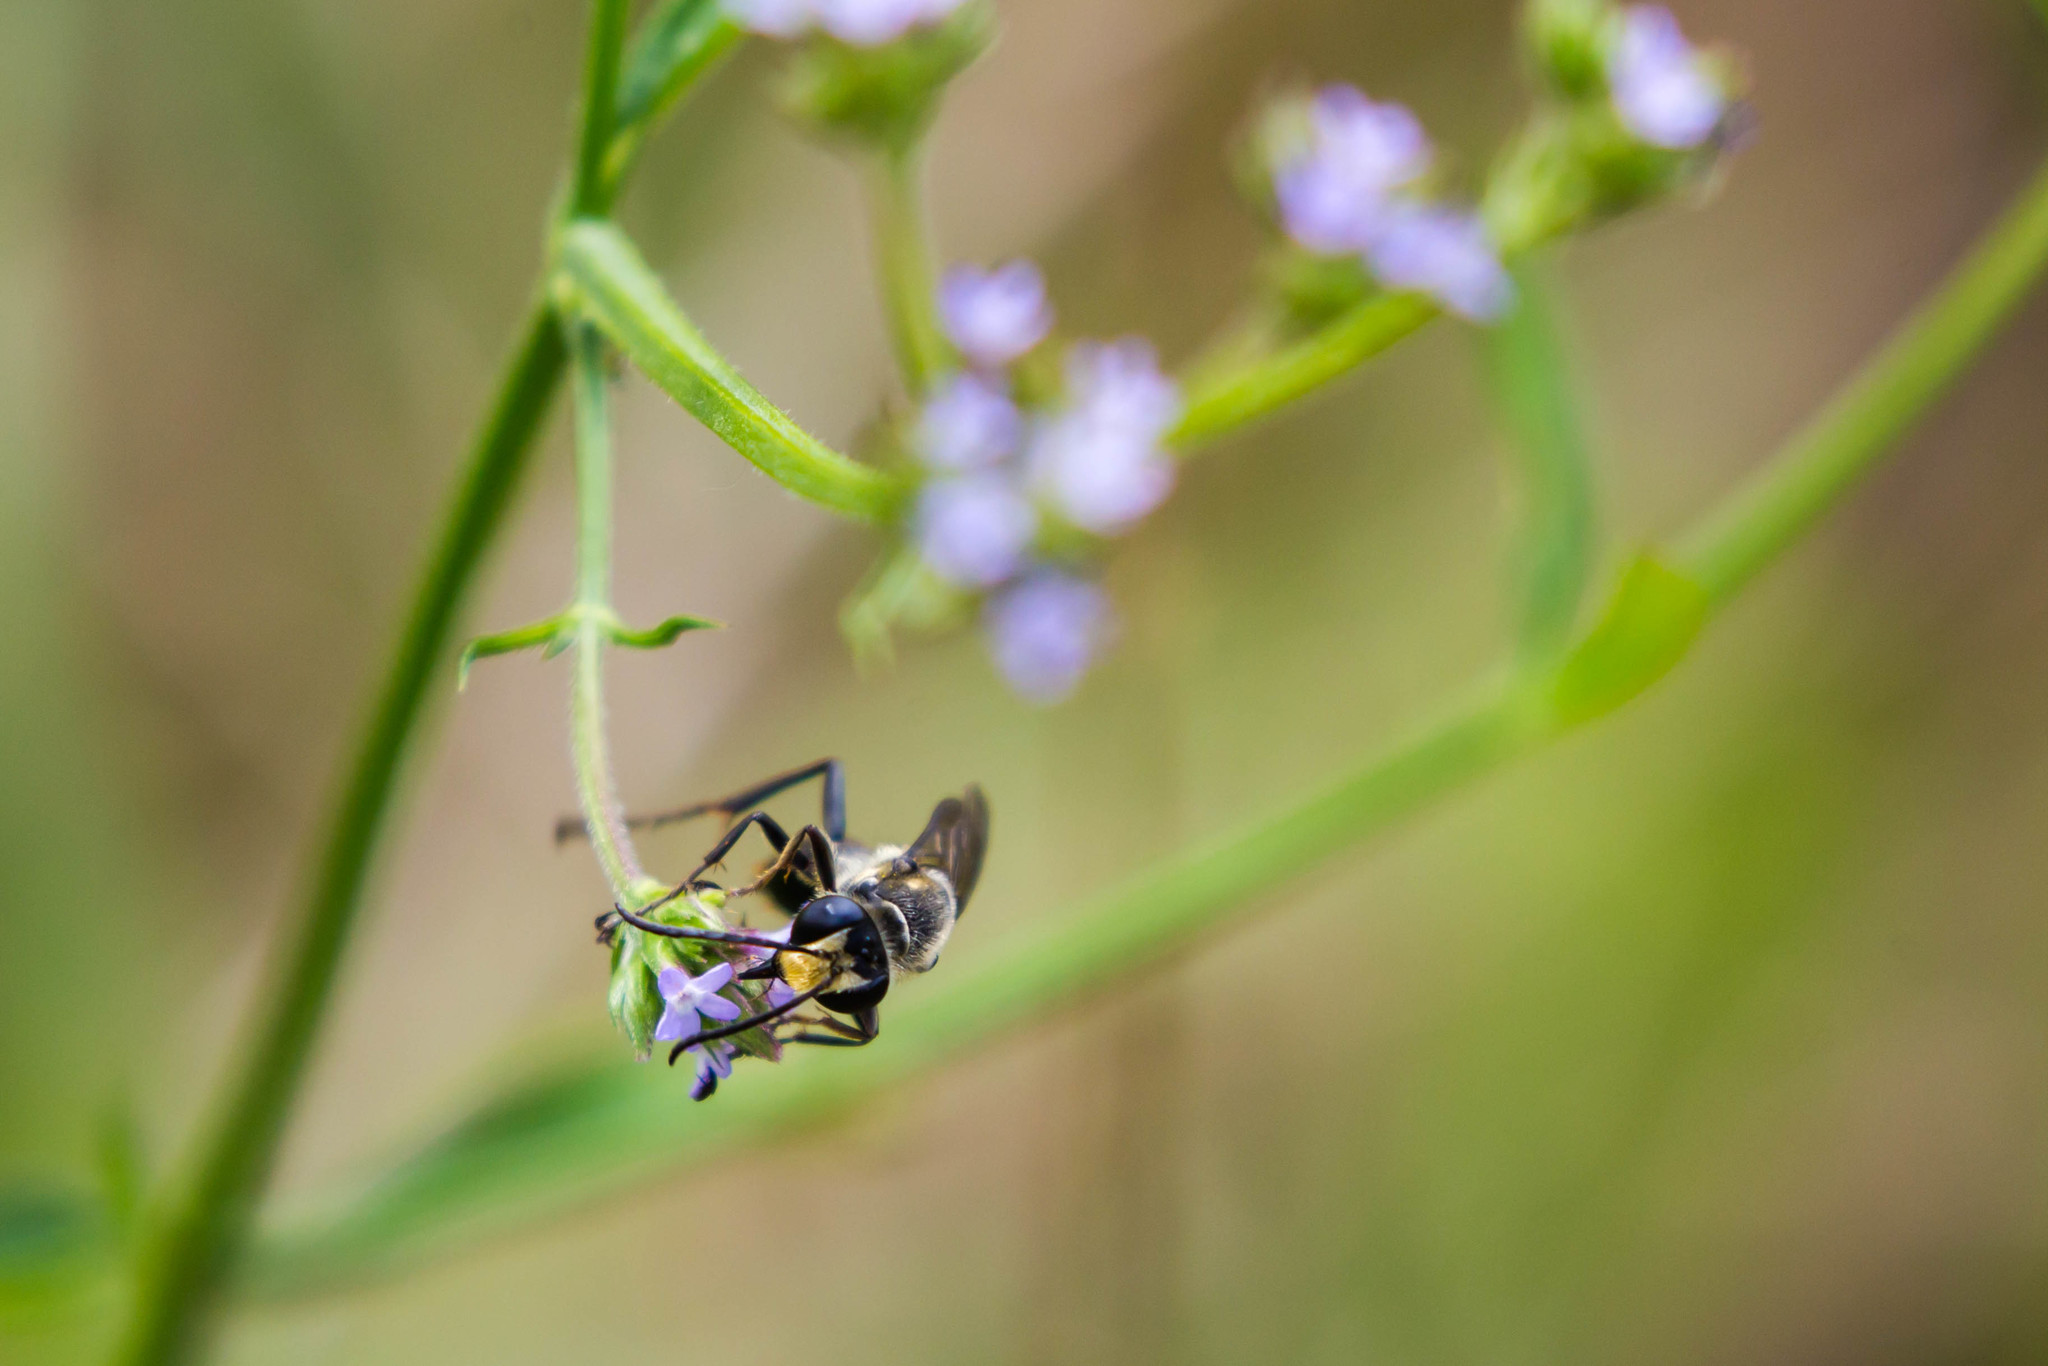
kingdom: Animalia
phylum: Arthropoda
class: Insecta
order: Hymenoptera
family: Sphecidae
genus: Sphex
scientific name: Sphex habenus
